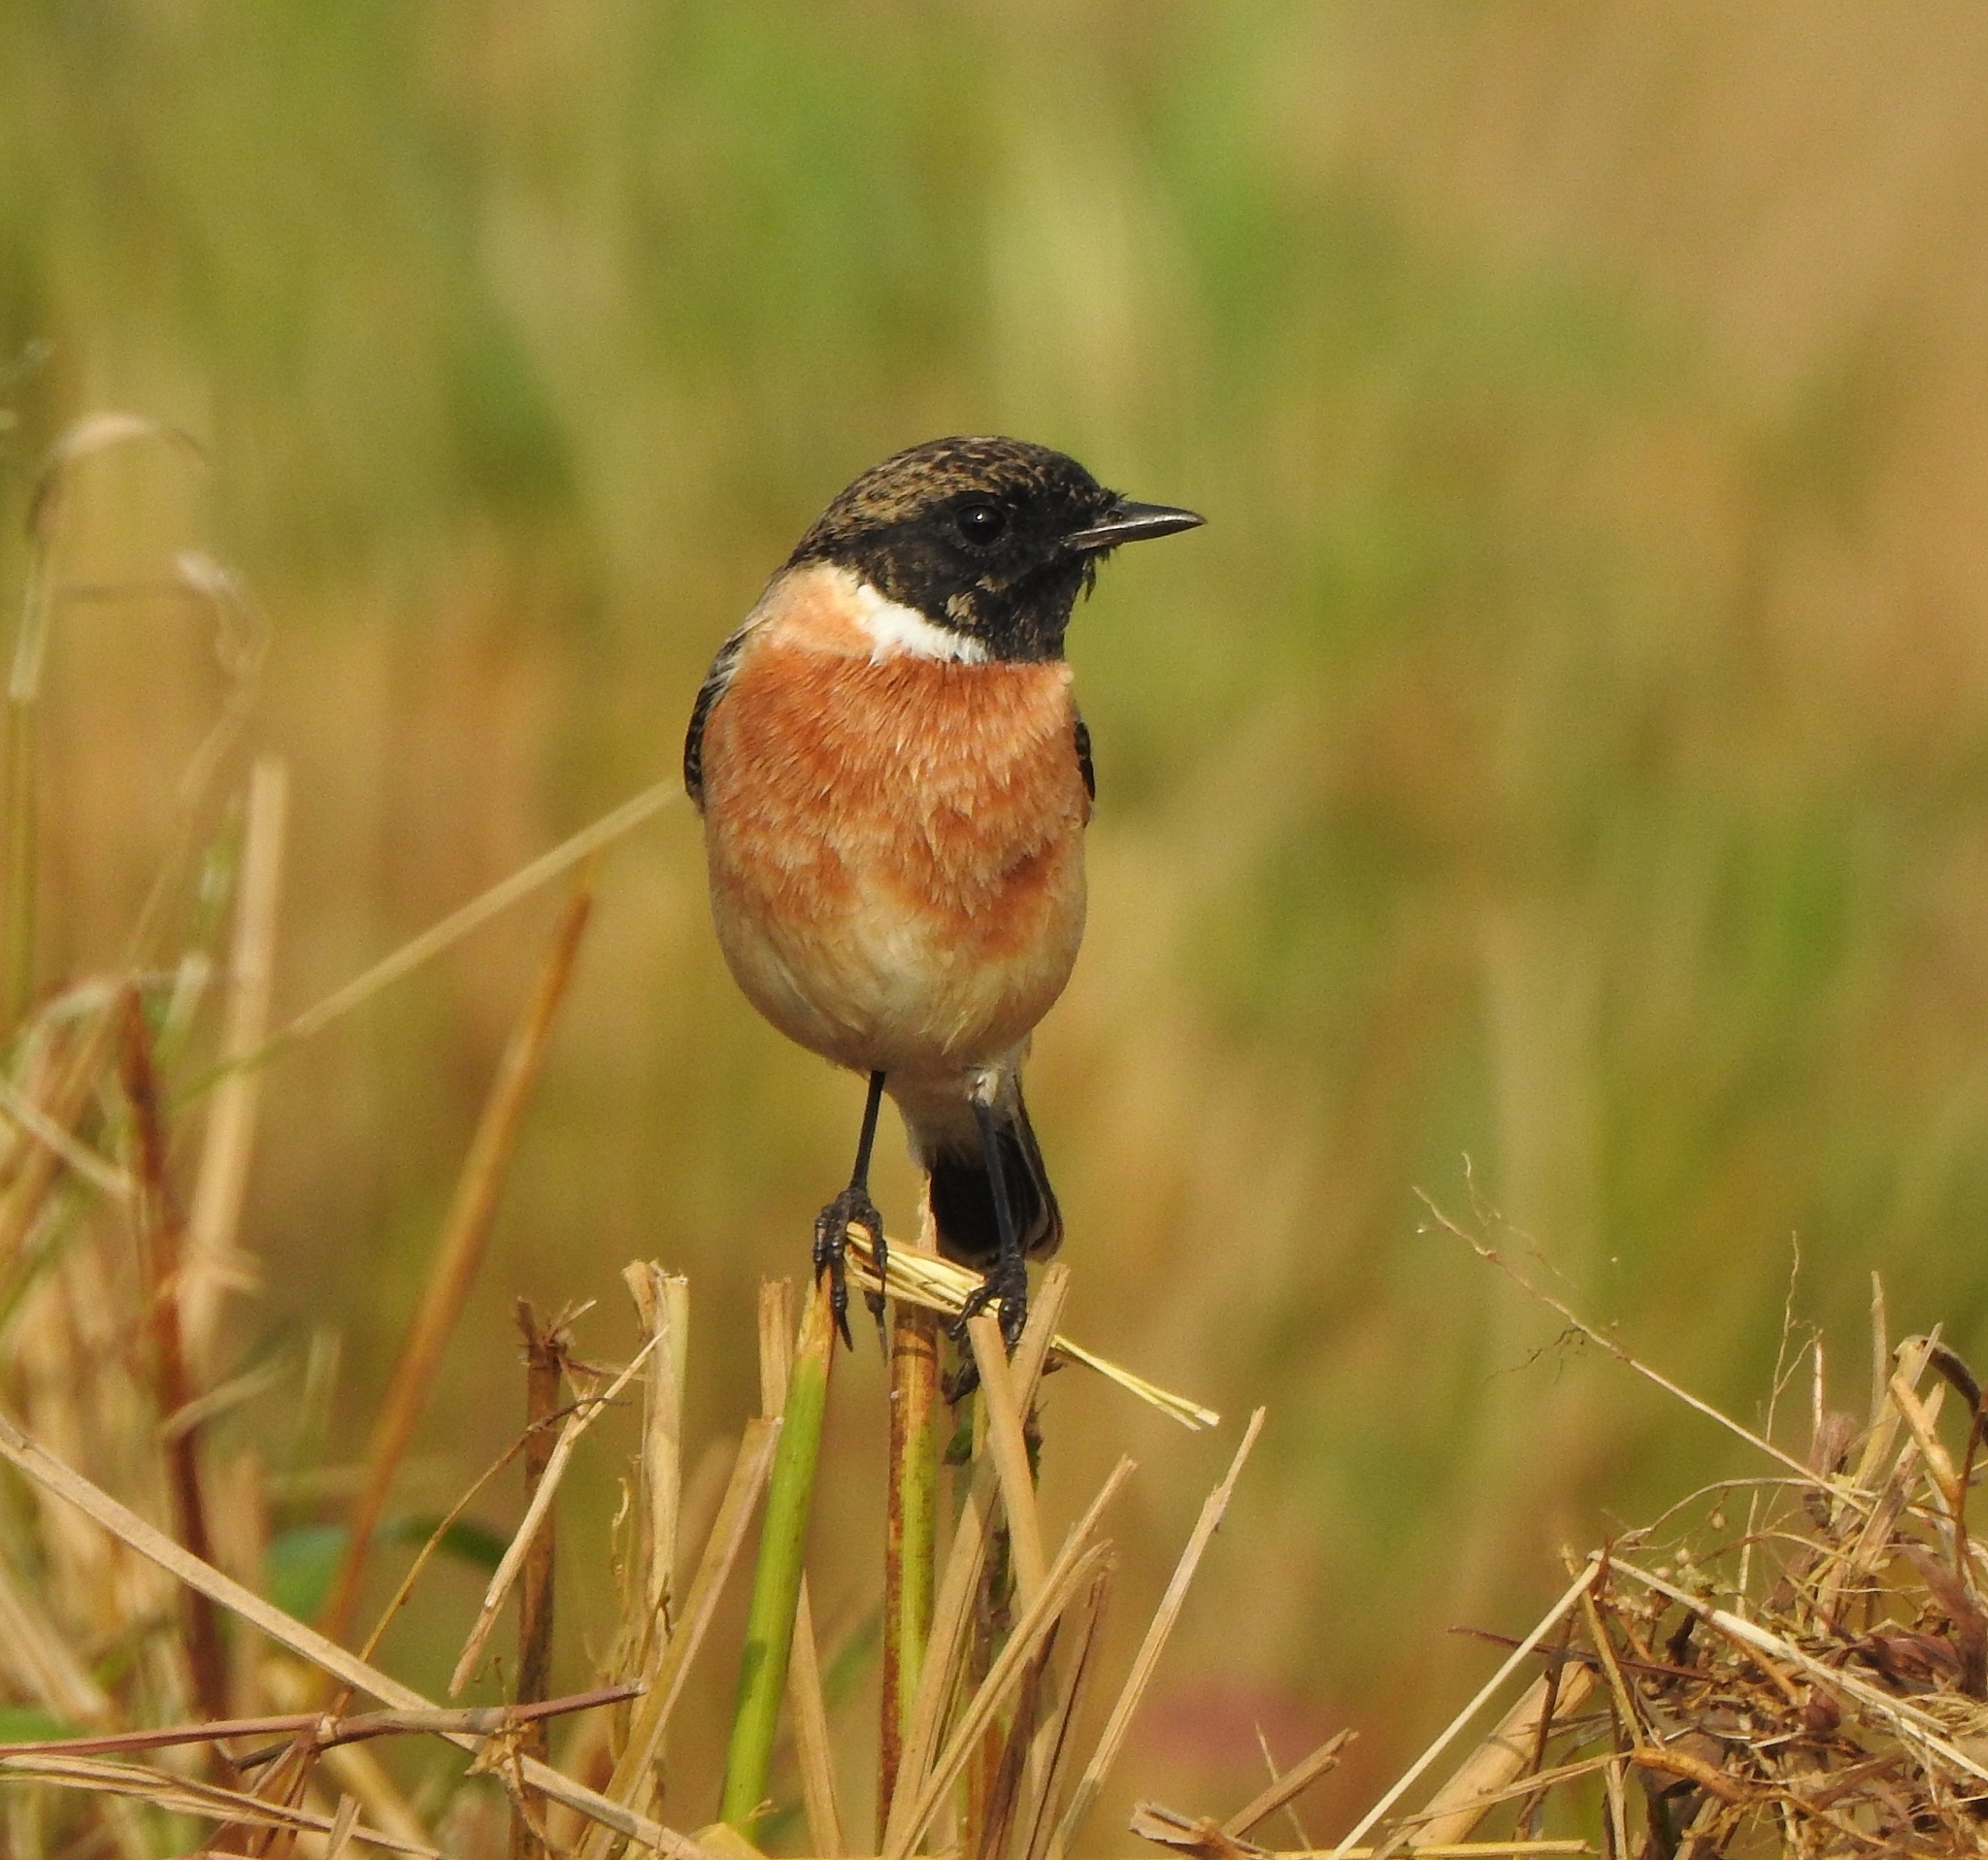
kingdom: Animalia
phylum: Chordata
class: Aves
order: Passeriformes
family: Muscicapidae
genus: Saxicola
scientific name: Saxicola maurus
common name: Siberian stonechat
